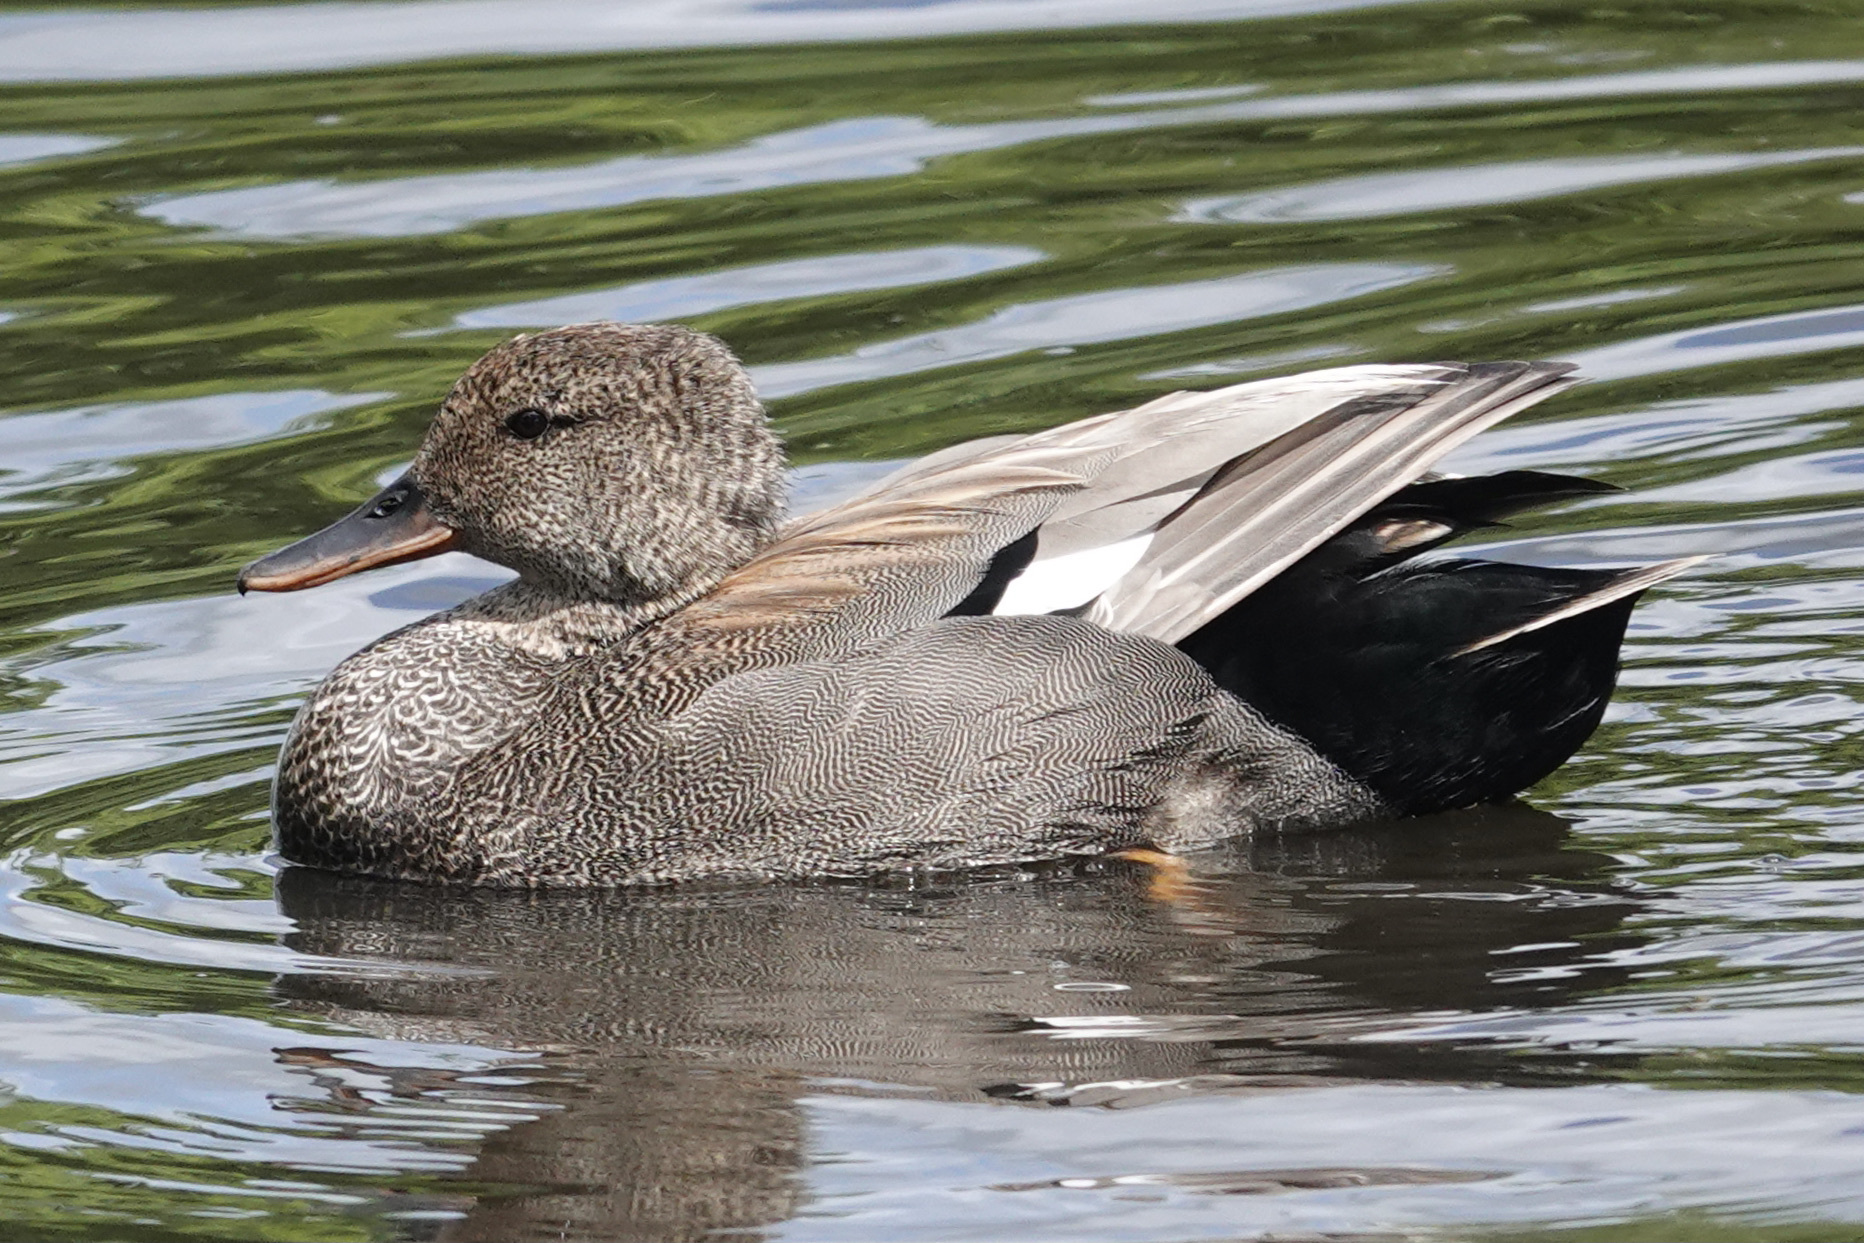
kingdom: Animalia
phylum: Chordata
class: Aves
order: Anseriformes
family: Anatidae
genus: Mareca
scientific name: Mareca strepera
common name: Gadwall
